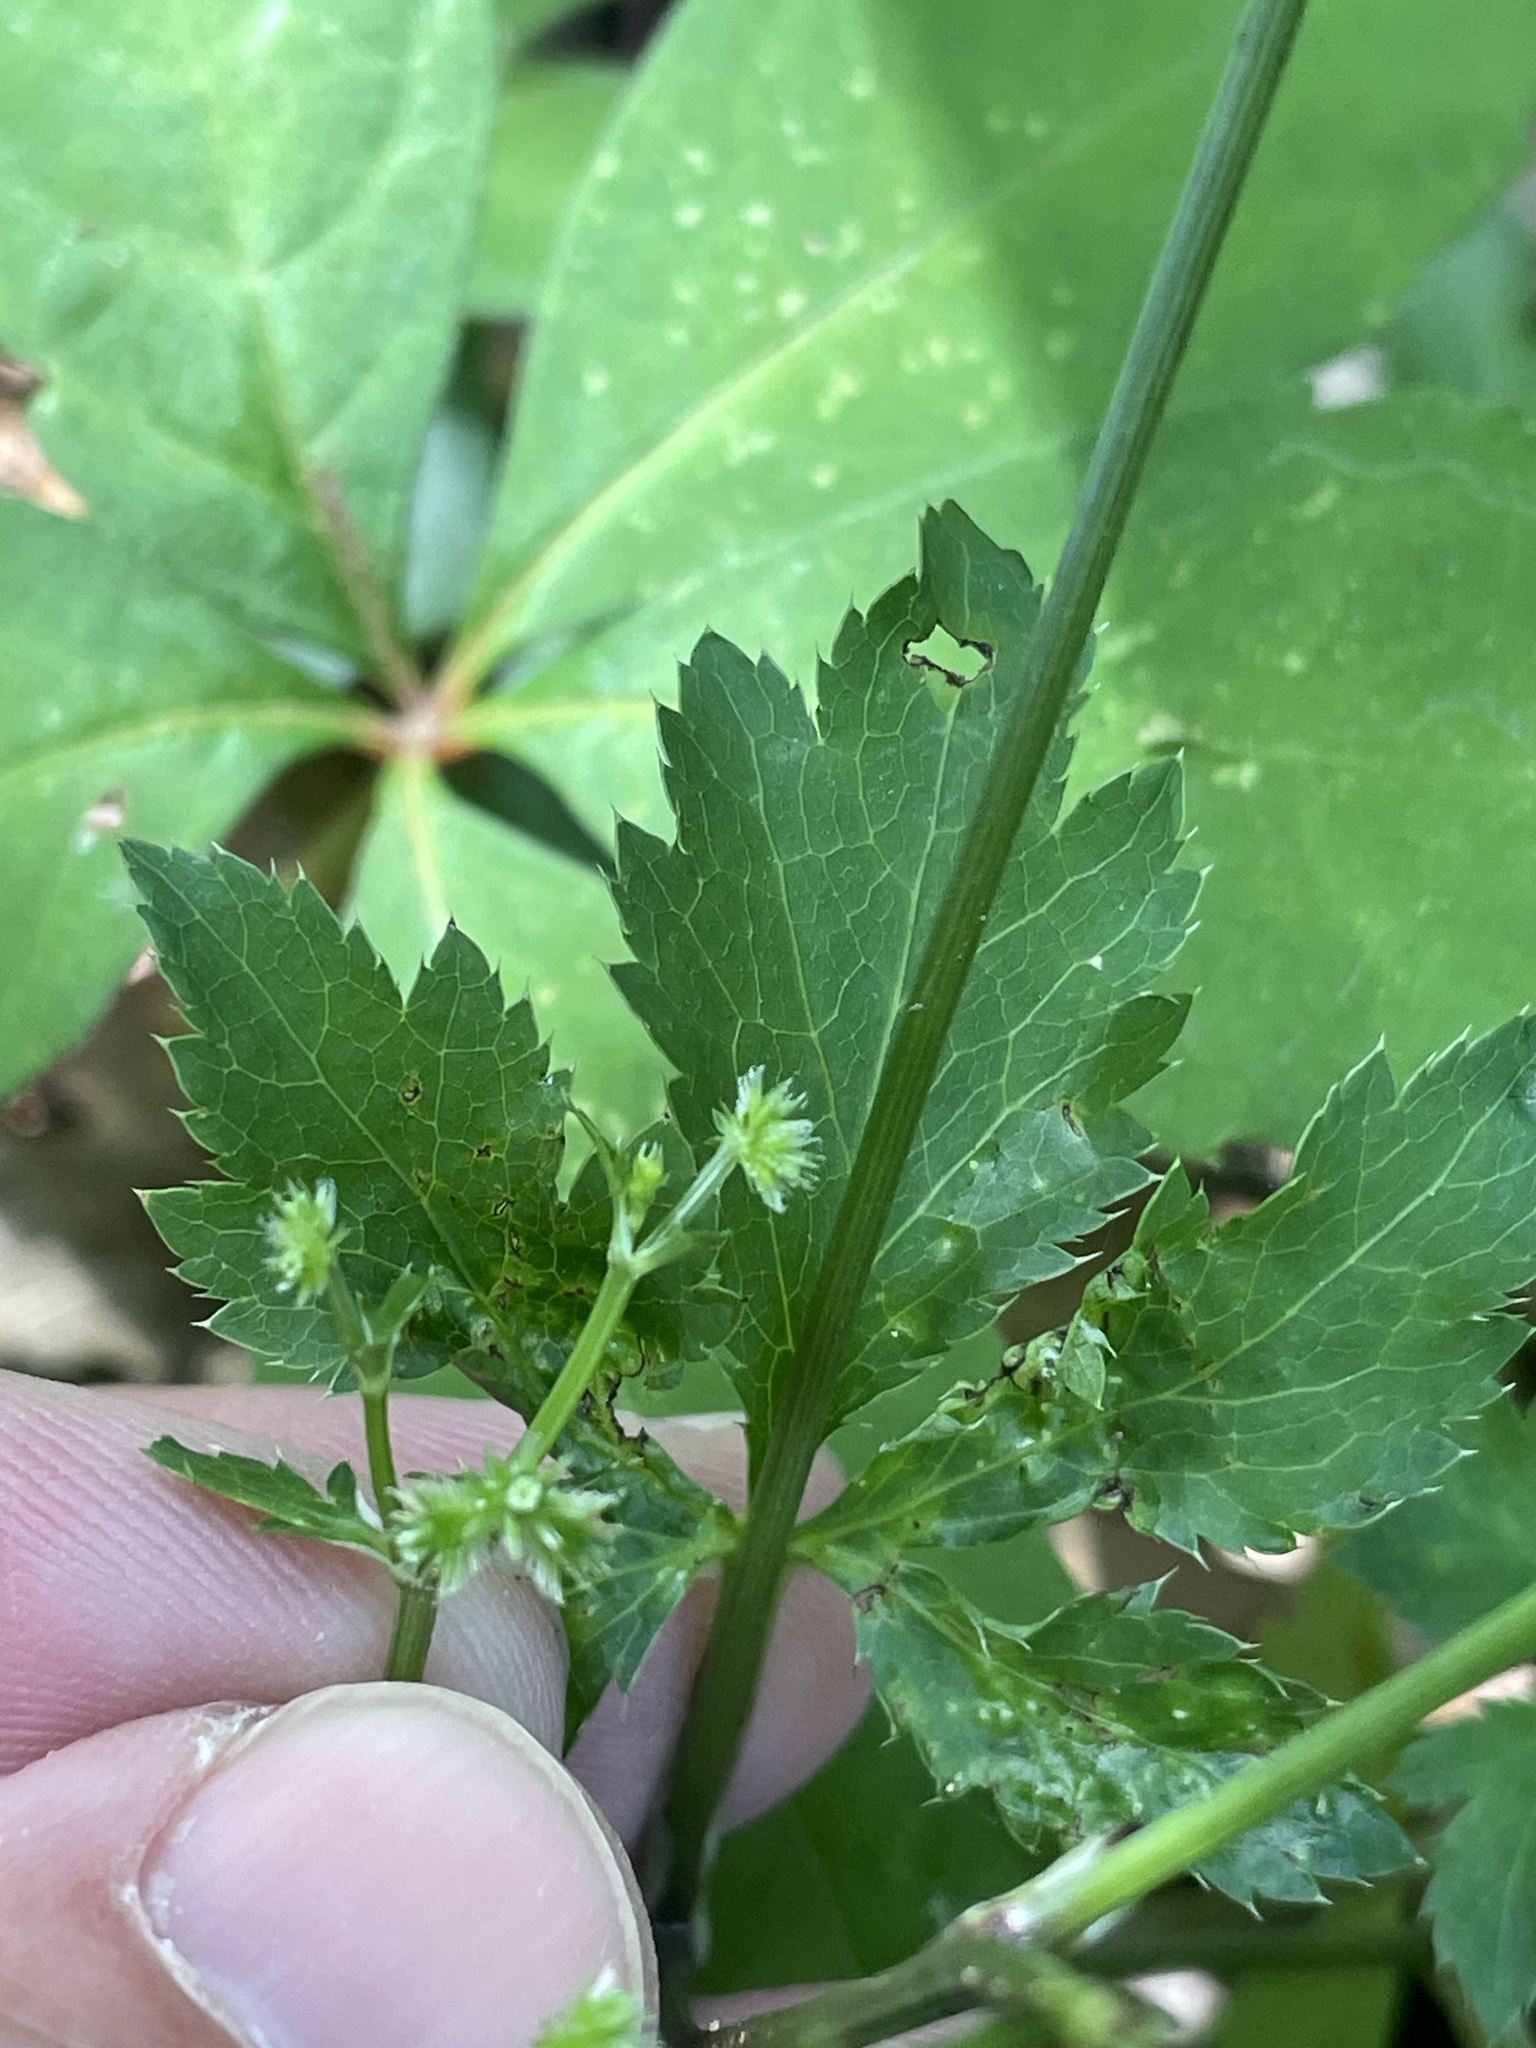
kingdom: Plantae
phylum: Tracheophyta
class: Magnoliopsida
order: Apiales
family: Apiaceae
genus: Sanicula
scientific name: Sanicula canadensis
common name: Canada sanicle
